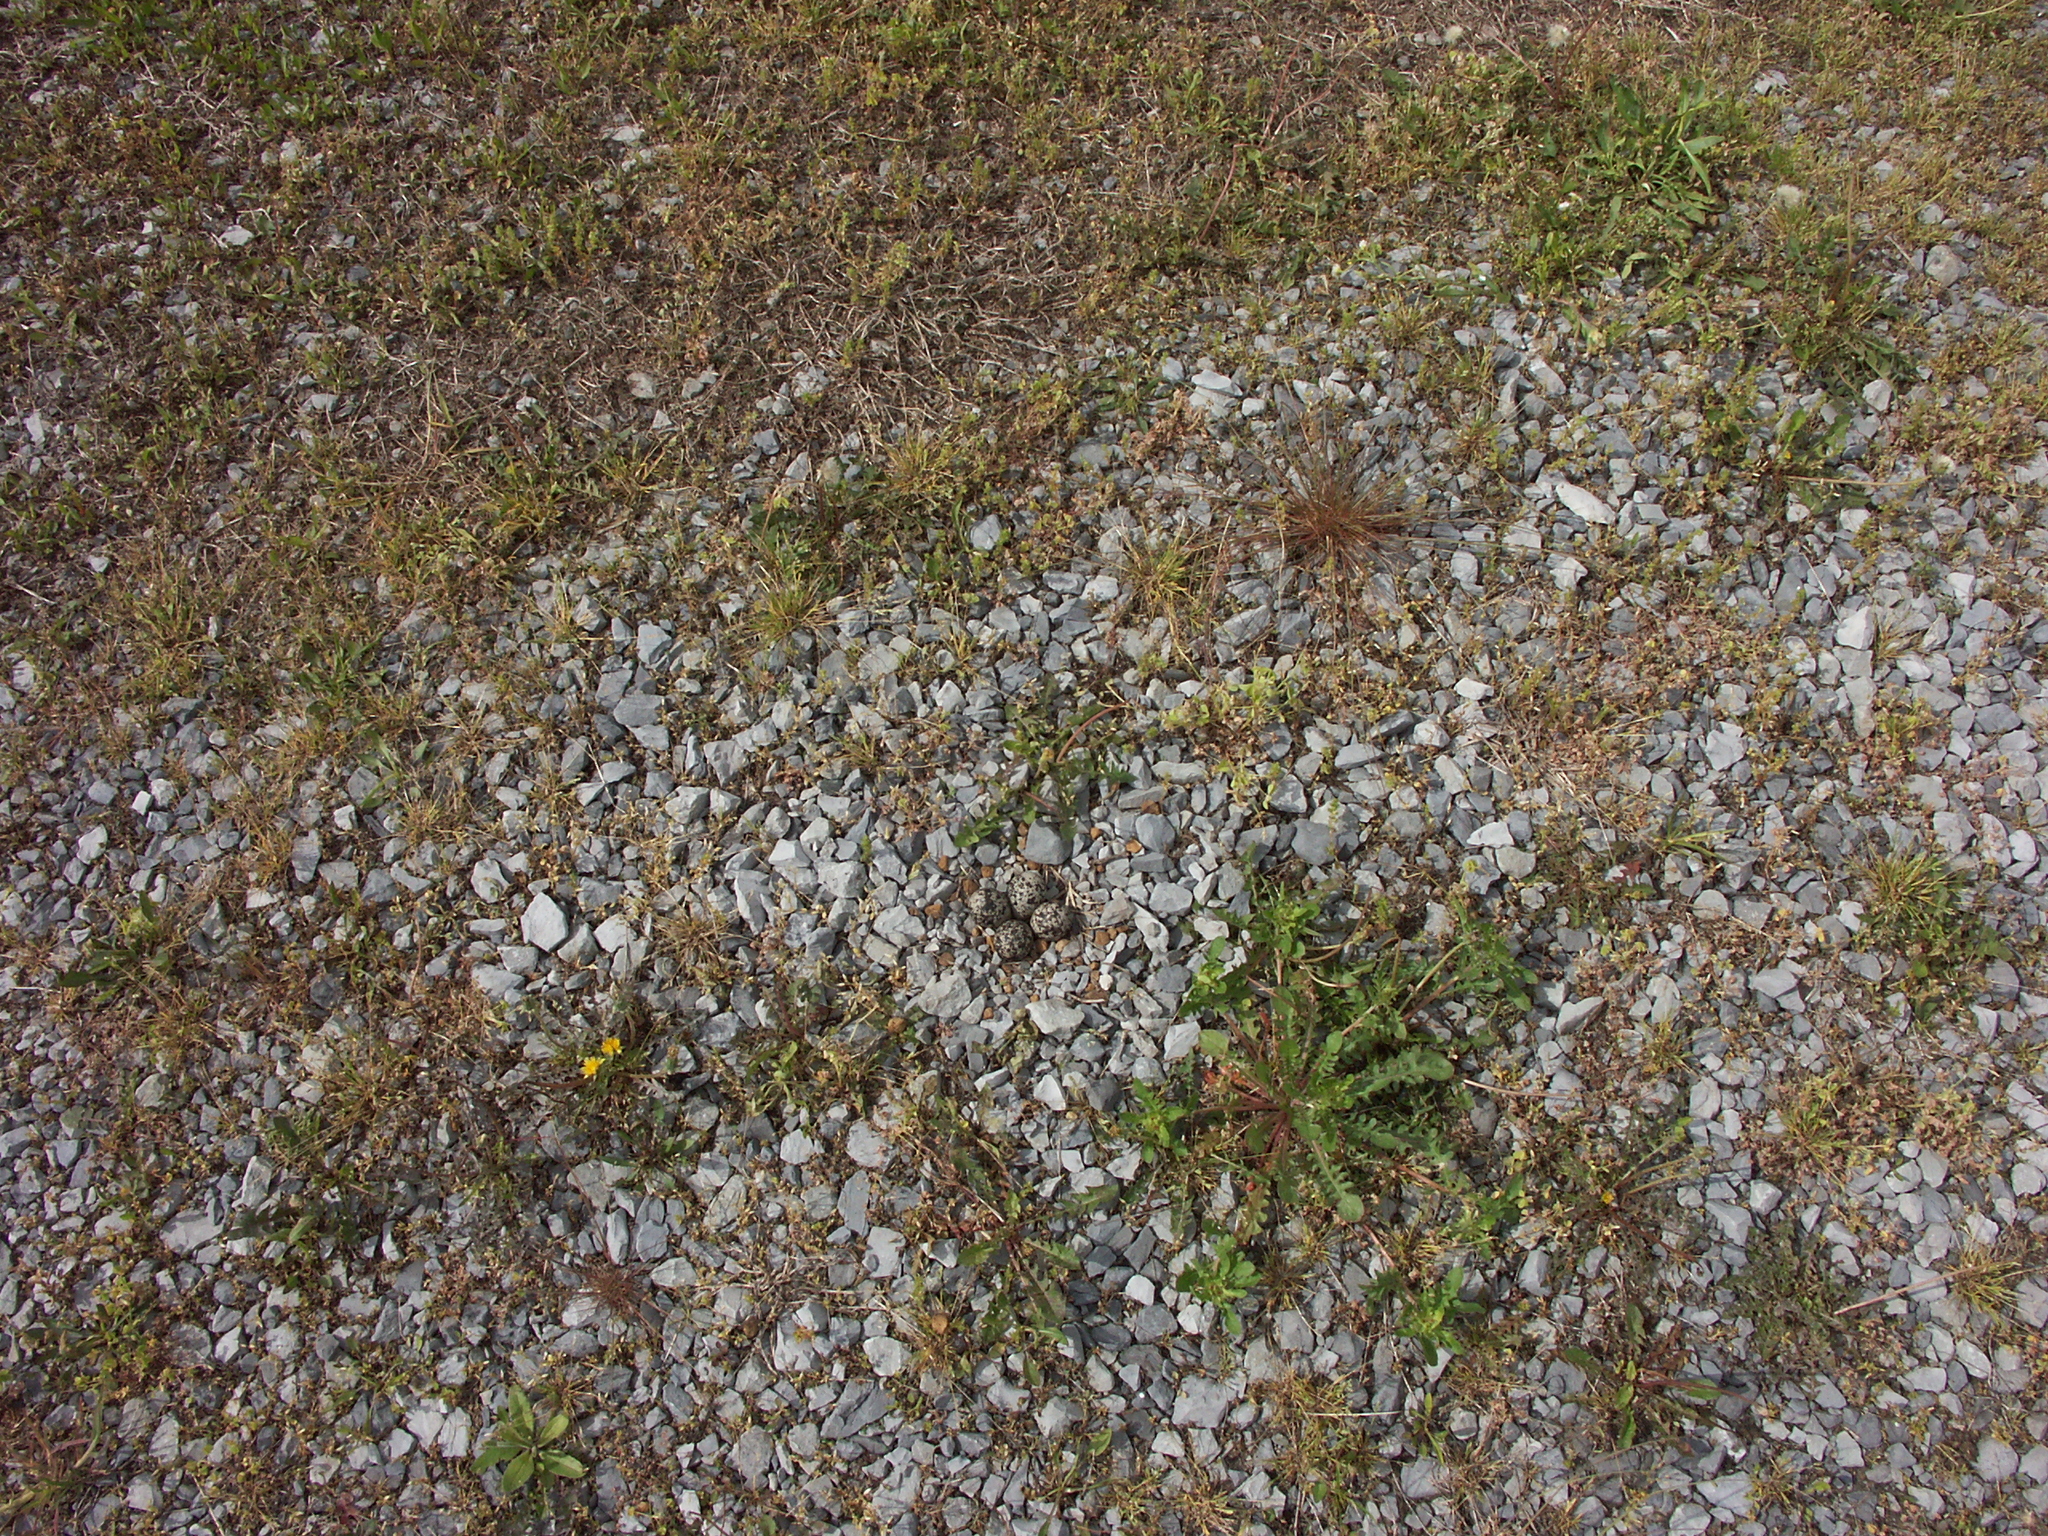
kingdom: Animalia
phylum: Chordata
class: Aves
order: Charadriiformes
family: Charadriidae
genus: Charadrius
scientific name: Charadrius vociferus
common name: Killdeer
